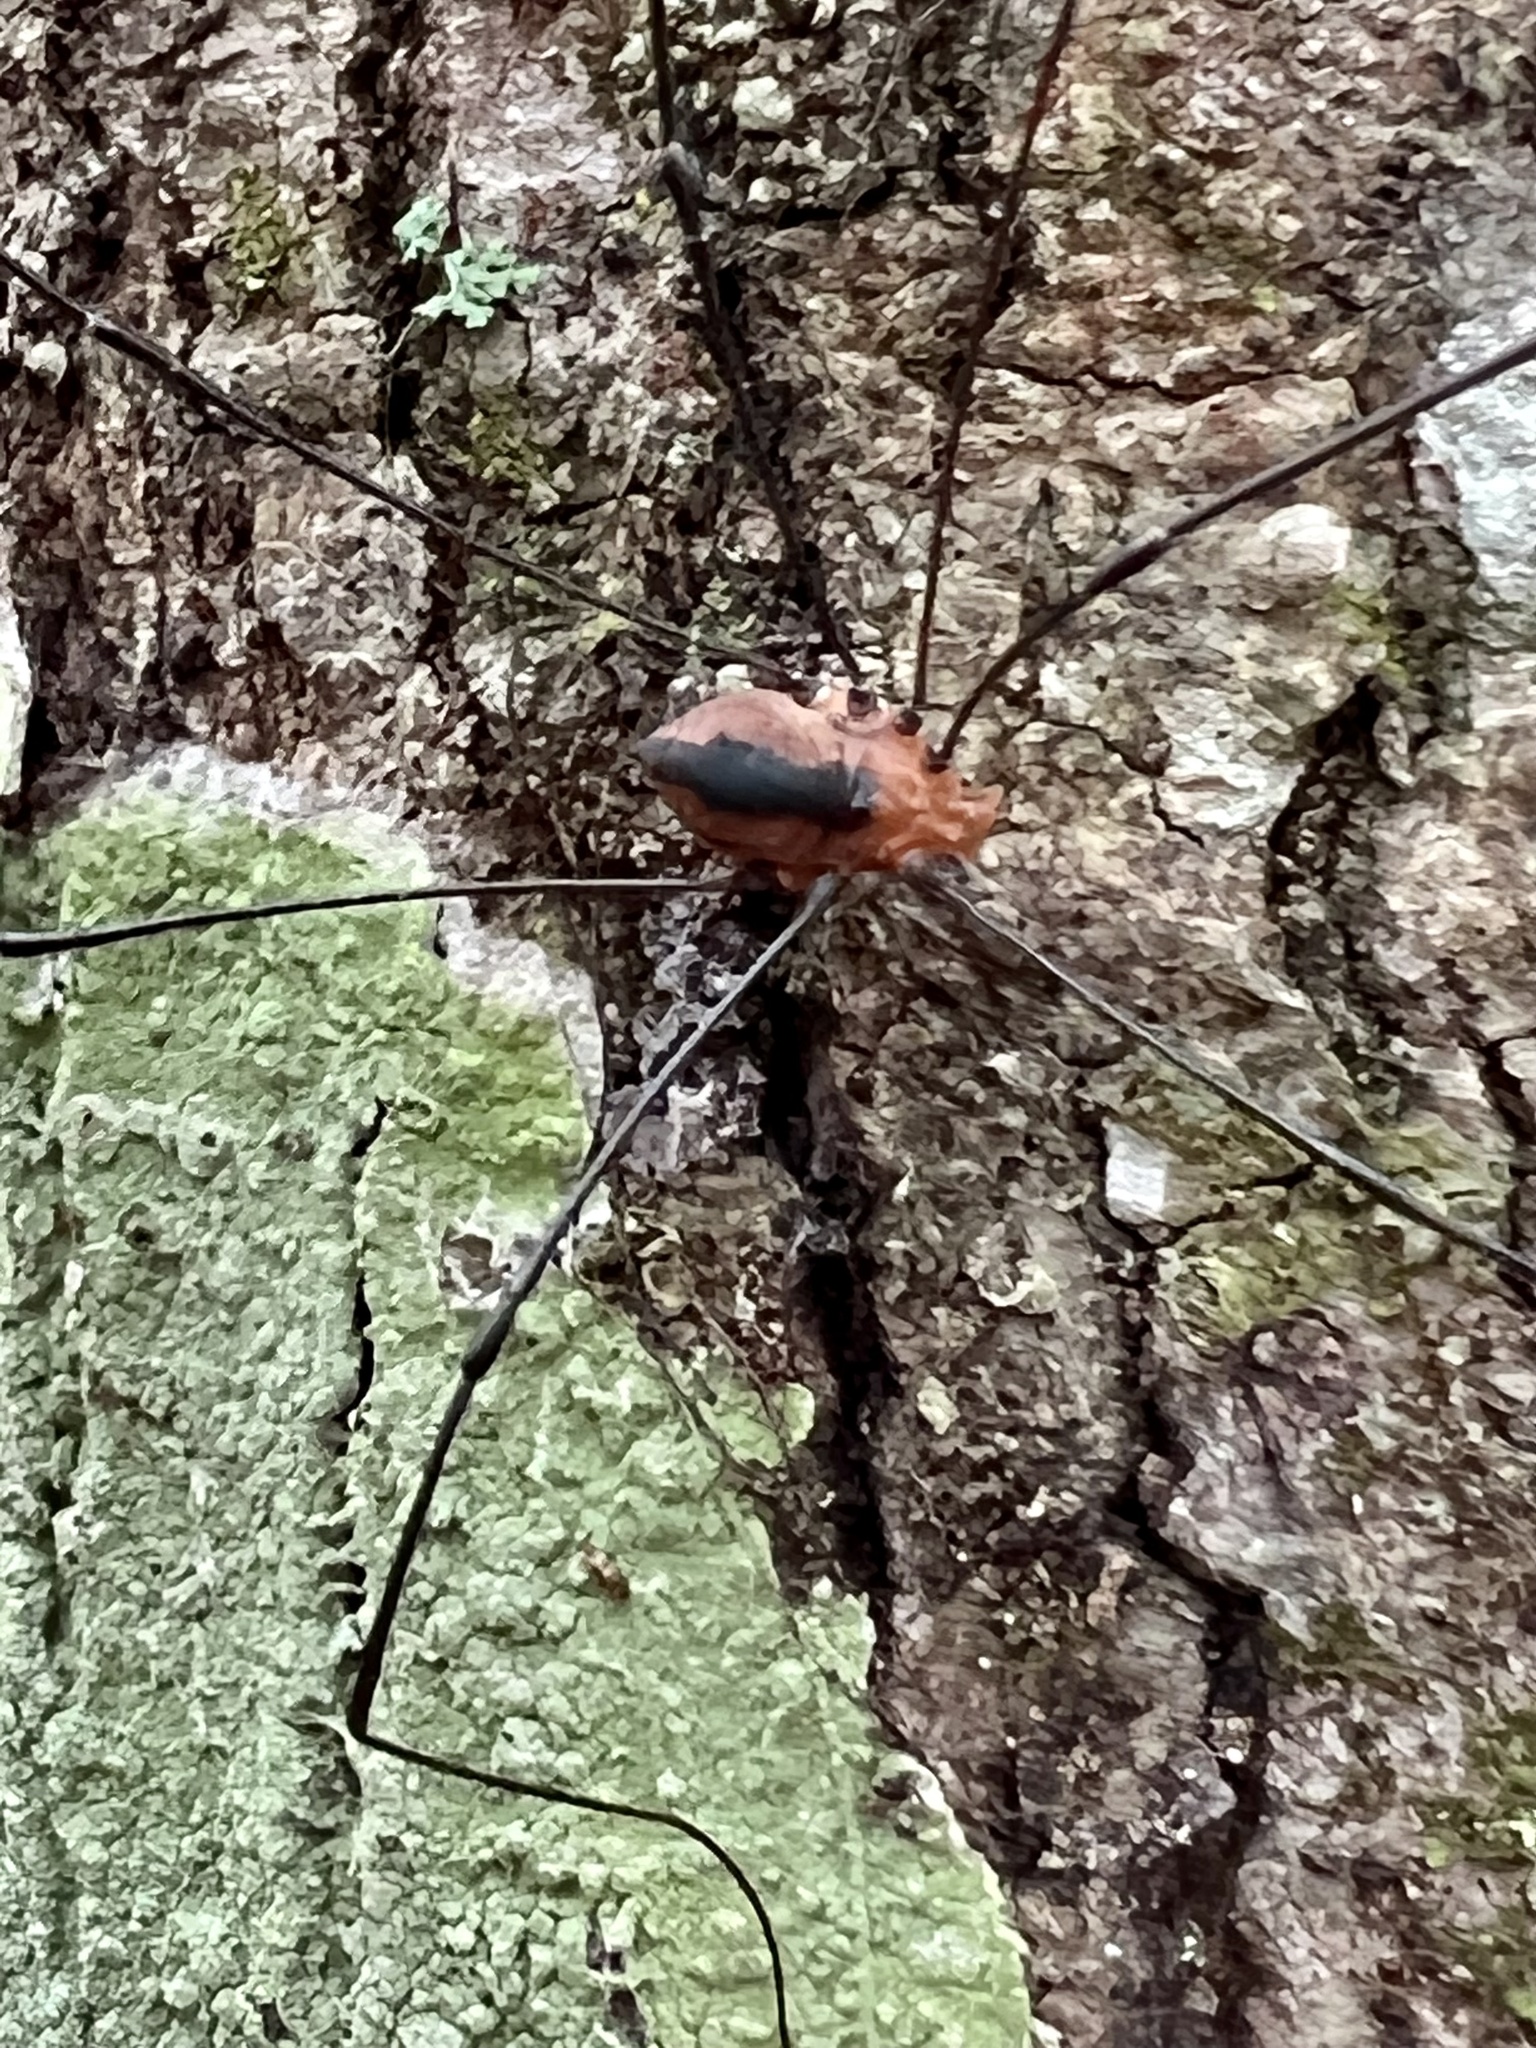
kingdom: Animalia
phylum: Arthropoda
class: Arachnida
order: Opiliones
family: Sclerosomatidae
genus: Leiobunum
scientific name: Leiobunum vittatum
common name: Eastern harvestman
